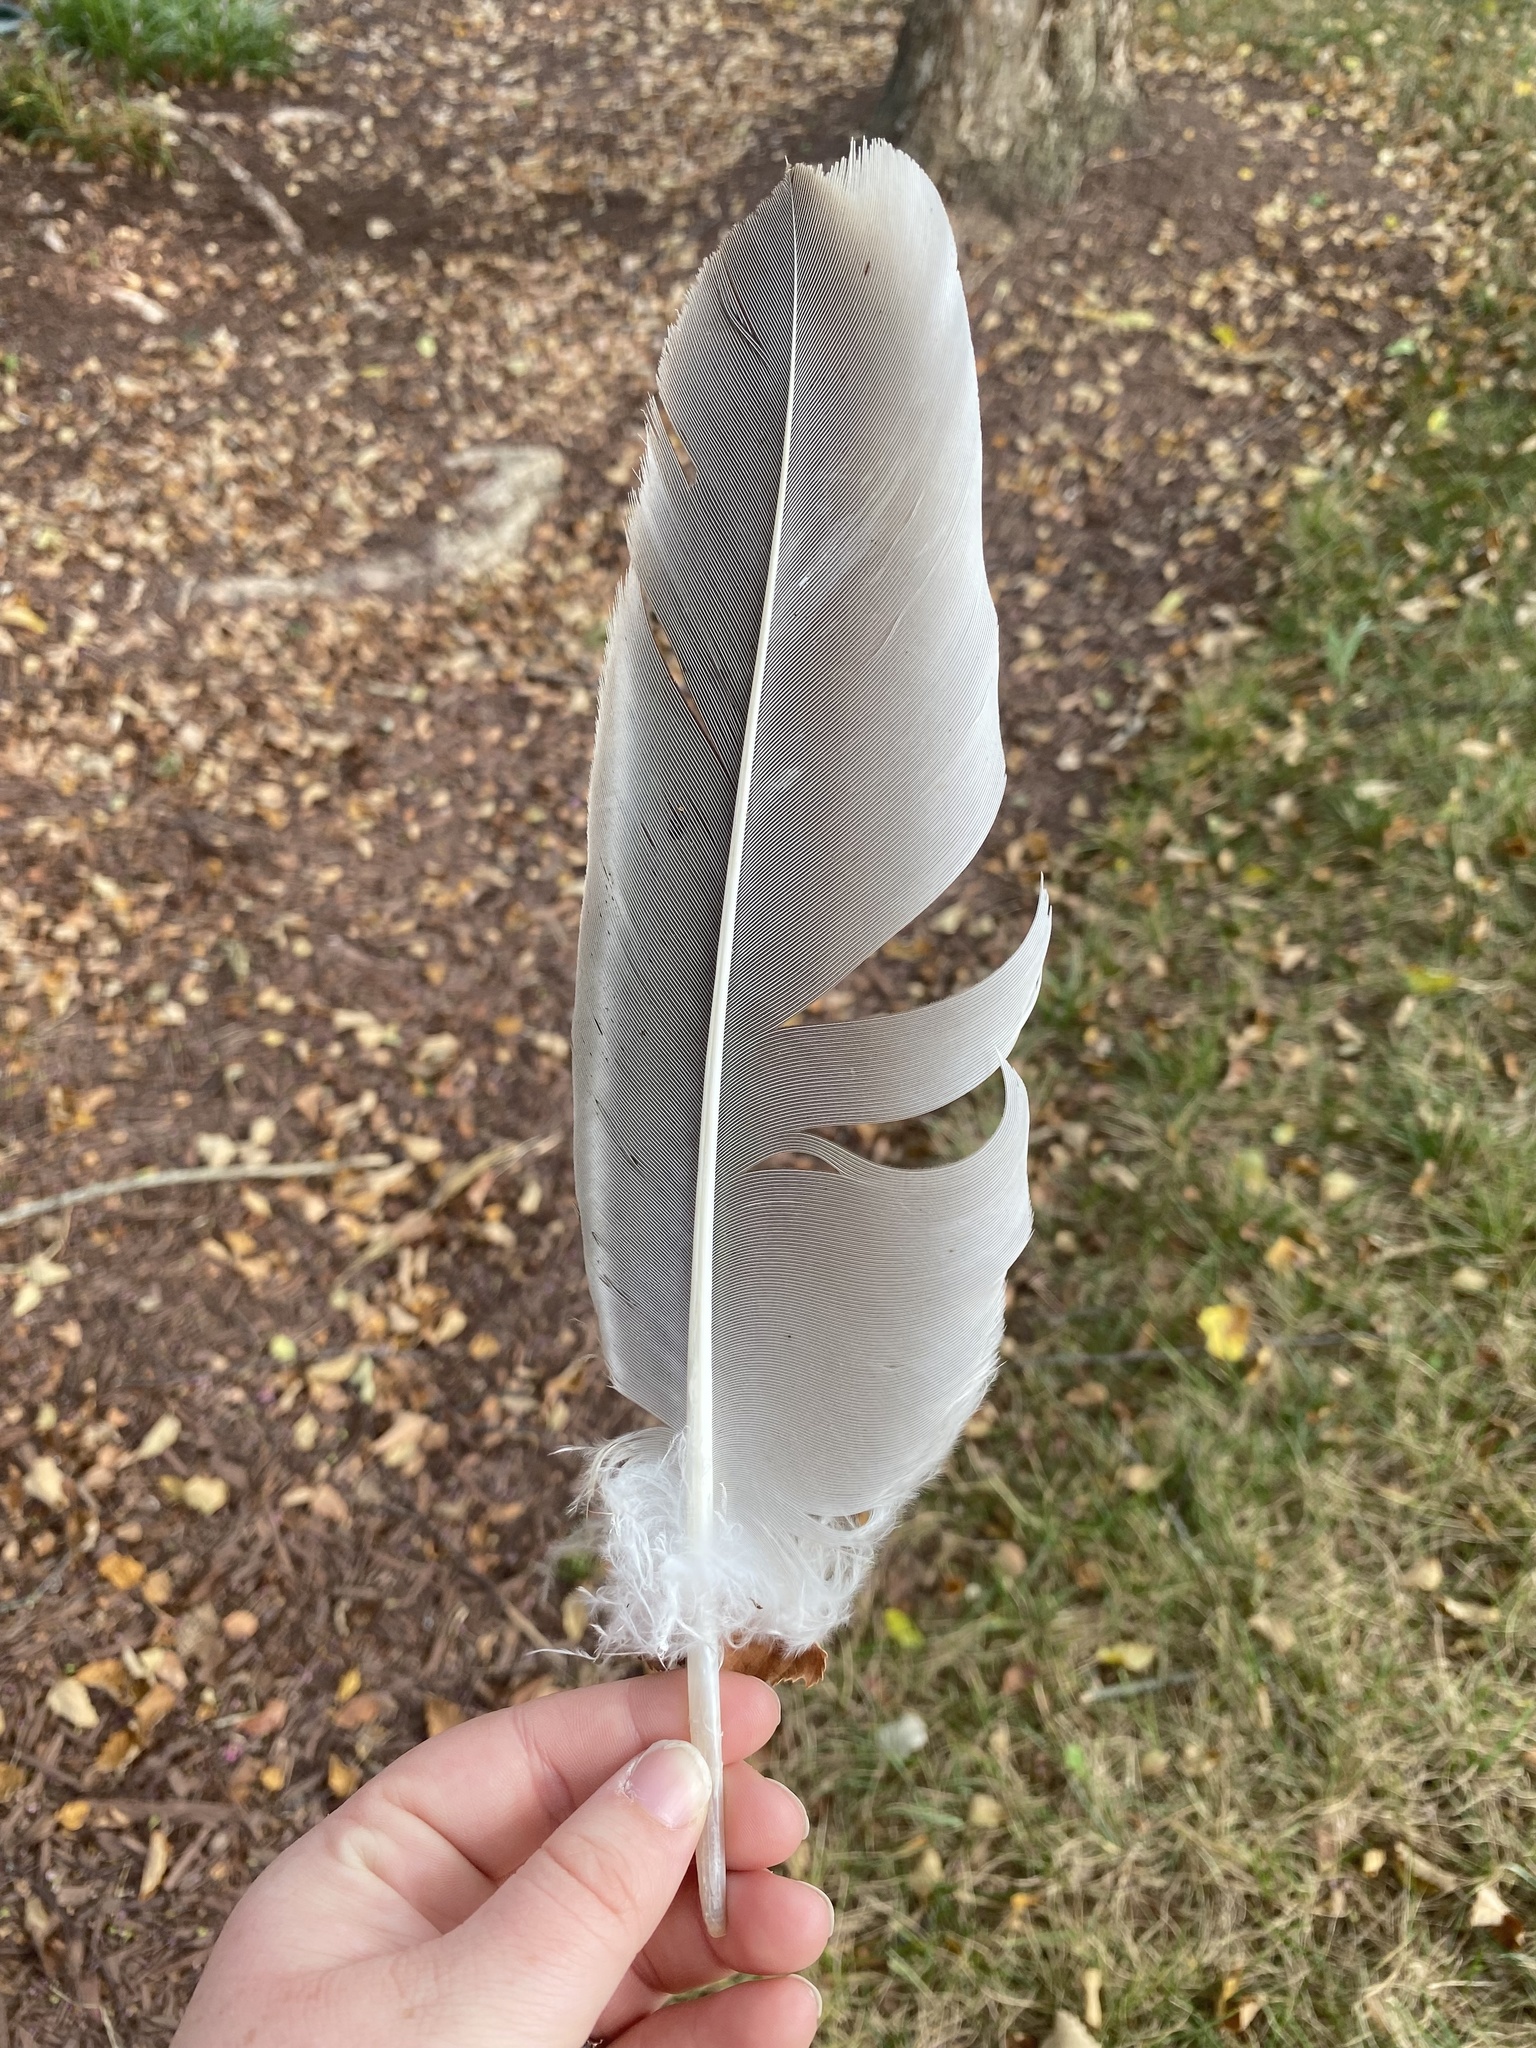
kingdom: Animalia
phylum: Chordata
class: Aves
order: Accipitriformes
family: Cathartidae
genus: Cathartes
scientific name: Cathartes aura
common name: Turkey vulture
